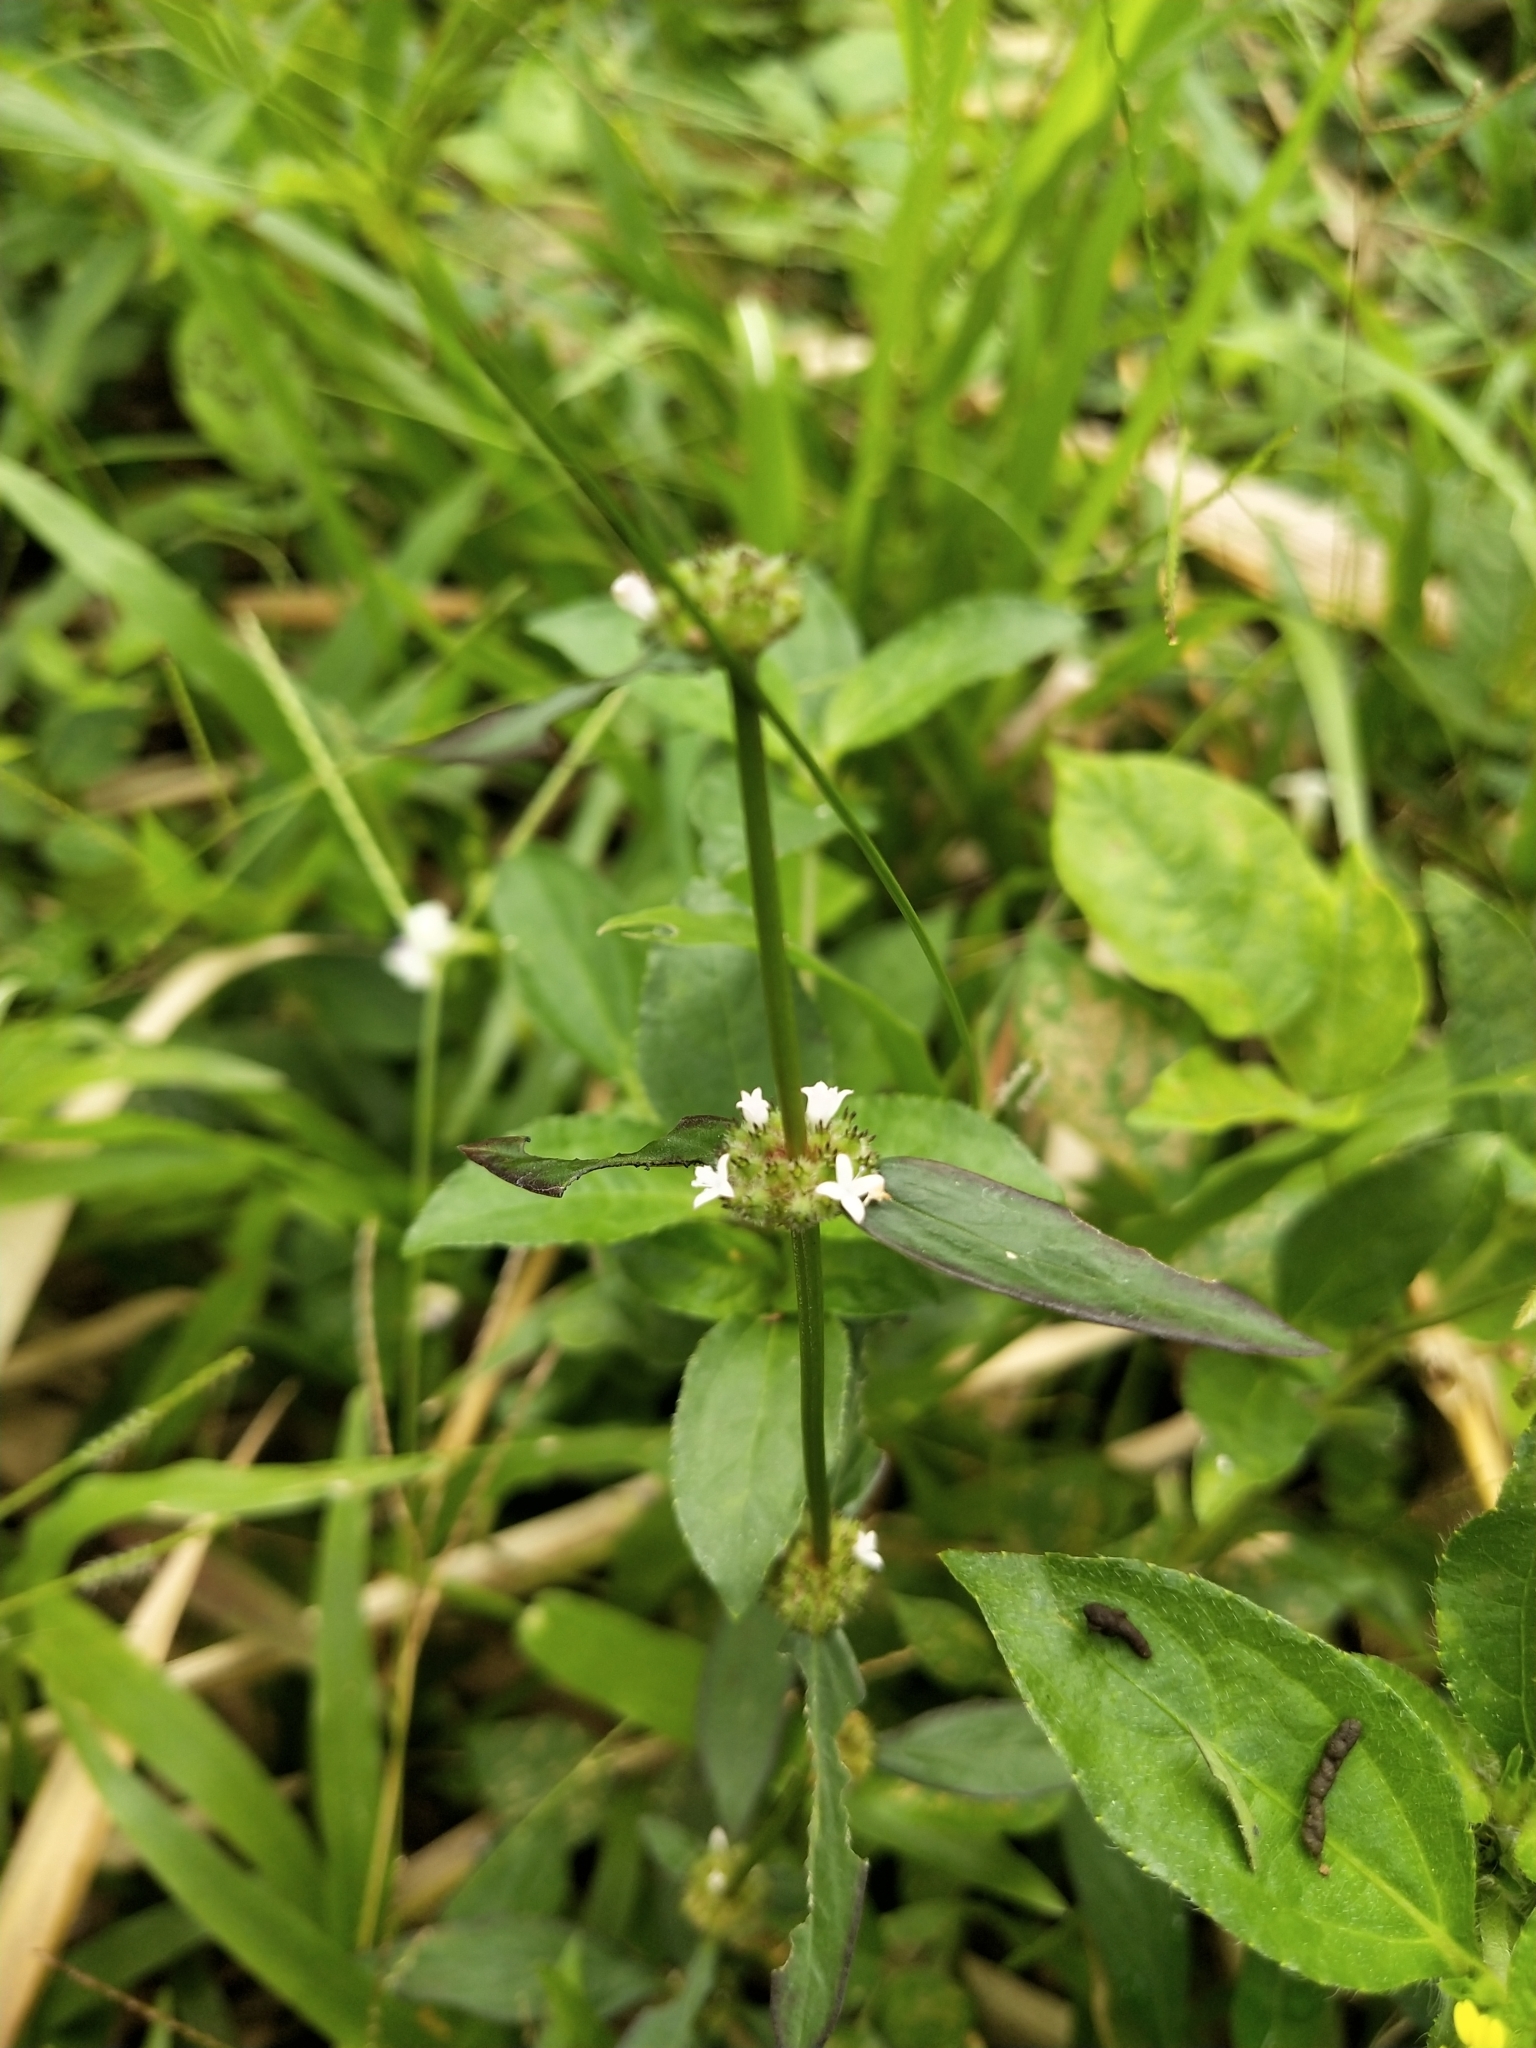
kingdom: Plantae
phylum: Tracheophyta
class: Magnoliopsida
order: Gentianales
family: Rubiaceae
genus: Spermacoce
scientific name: Spermacoce remota
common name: Woodland false buttonweed
